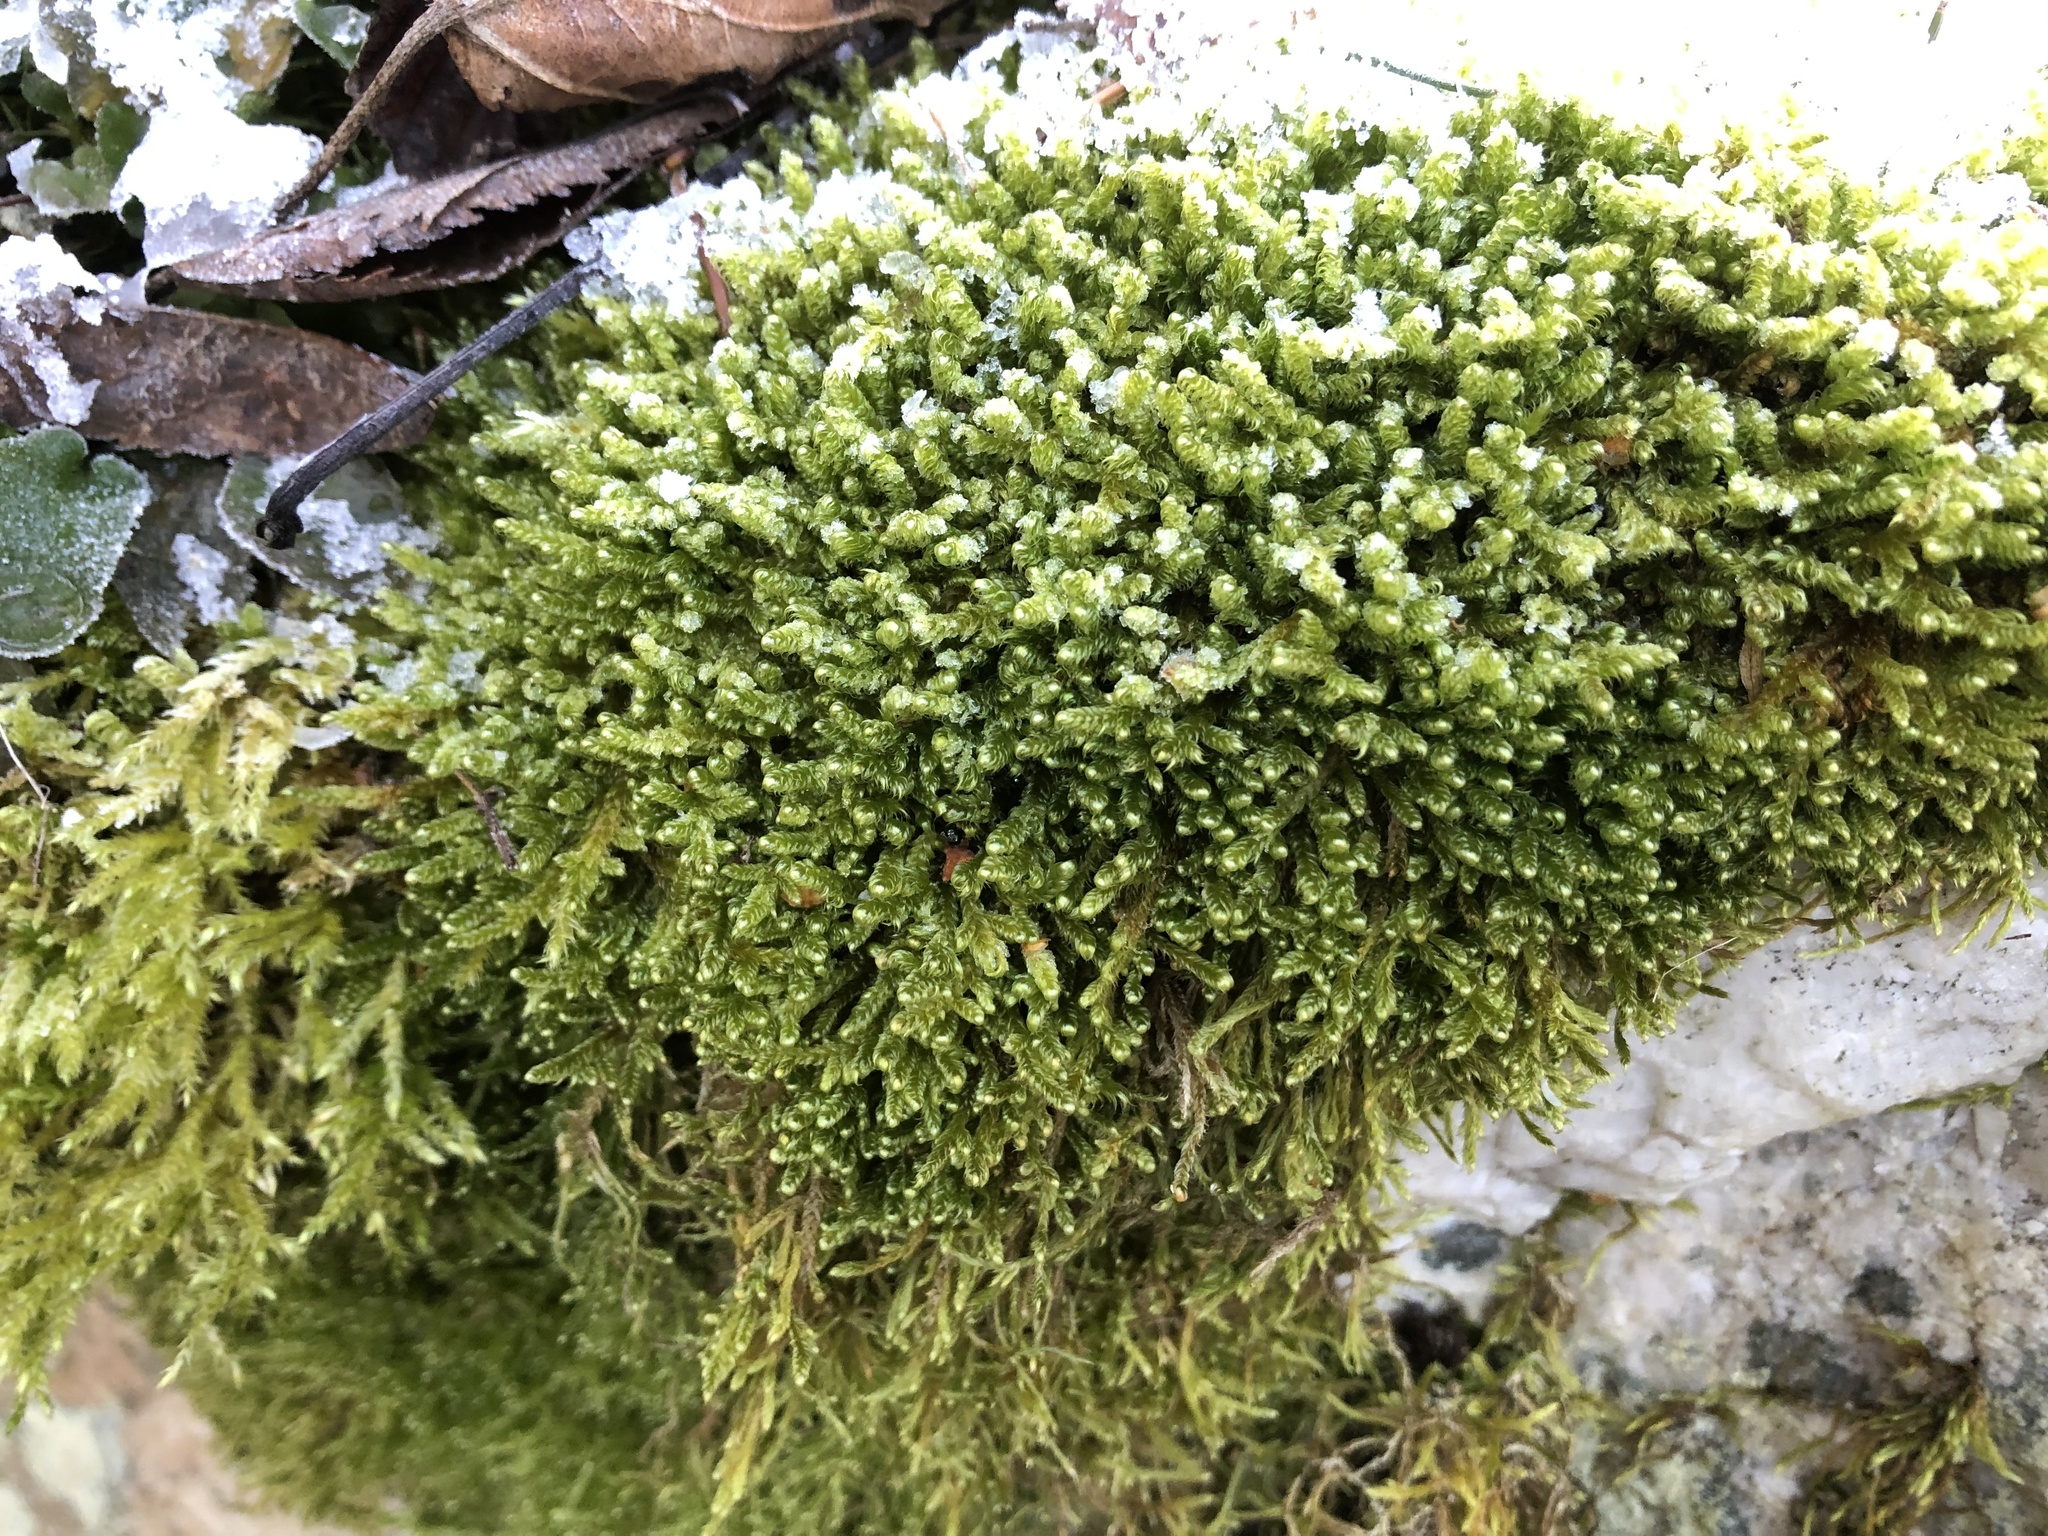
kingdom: Plantae
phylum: Bryophyta
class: Bryopsida
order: Hypnales
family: Hypnaceae
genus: Hypnum
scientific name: Hypnum cupressiforme
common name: Cypress-leaved plait-moss
